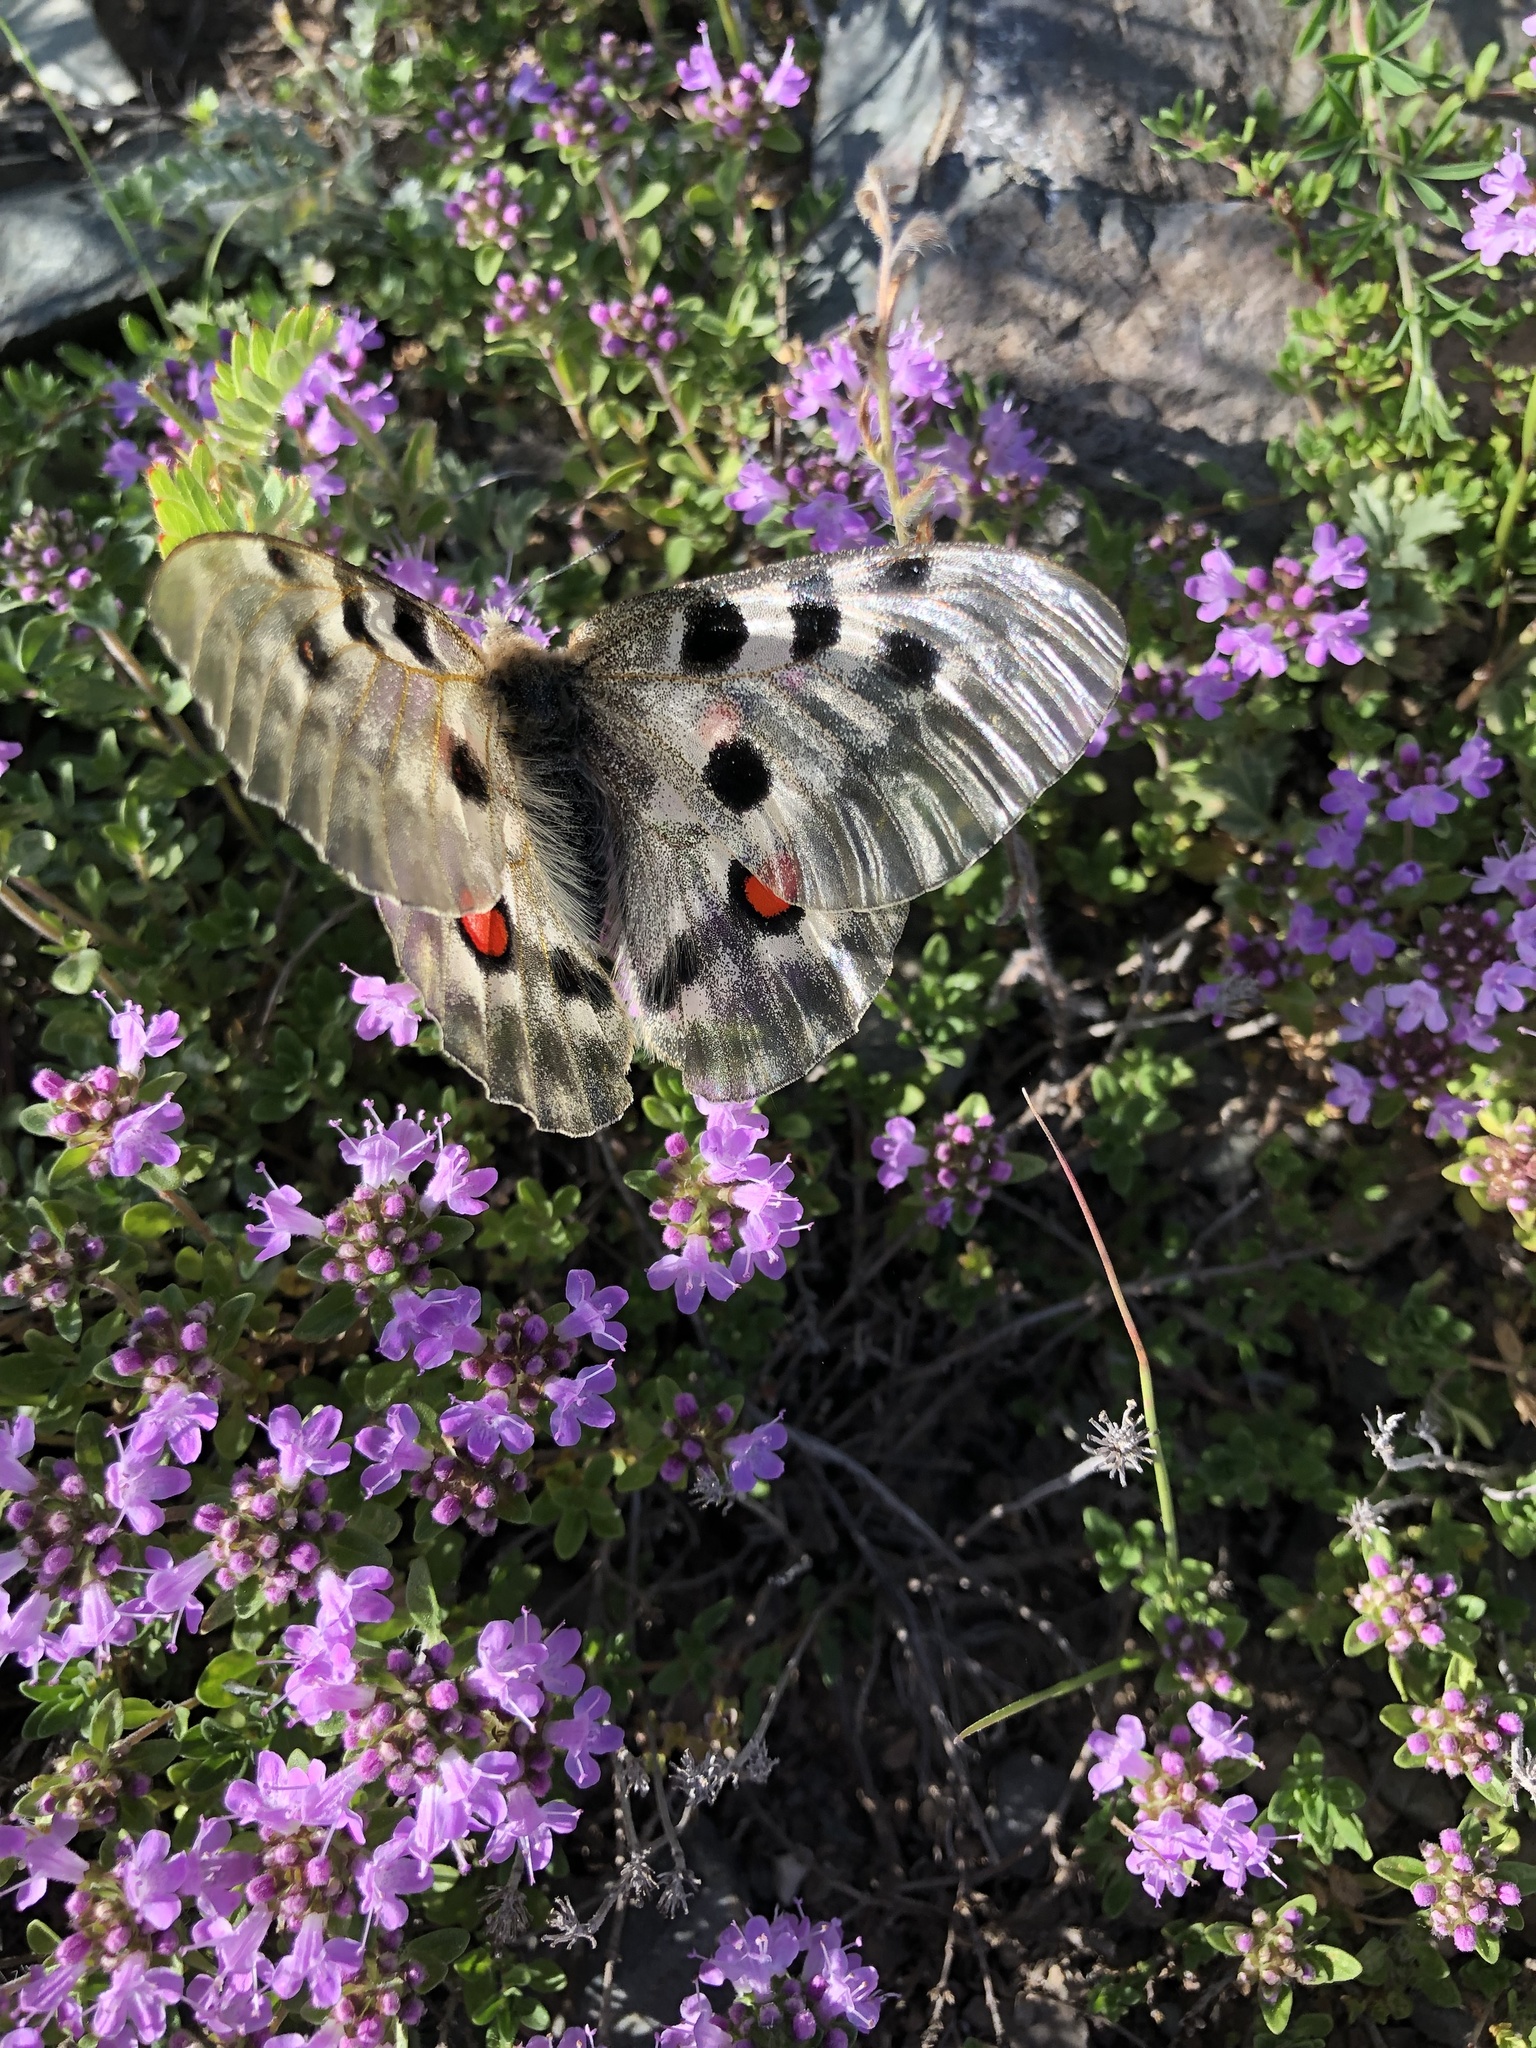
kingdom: Animalia
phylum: Arthropoda
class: Insecta
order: Lepidoptera
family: Papilionidae
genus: Parnassius
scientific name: Parnassius apollo
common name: Apollo
